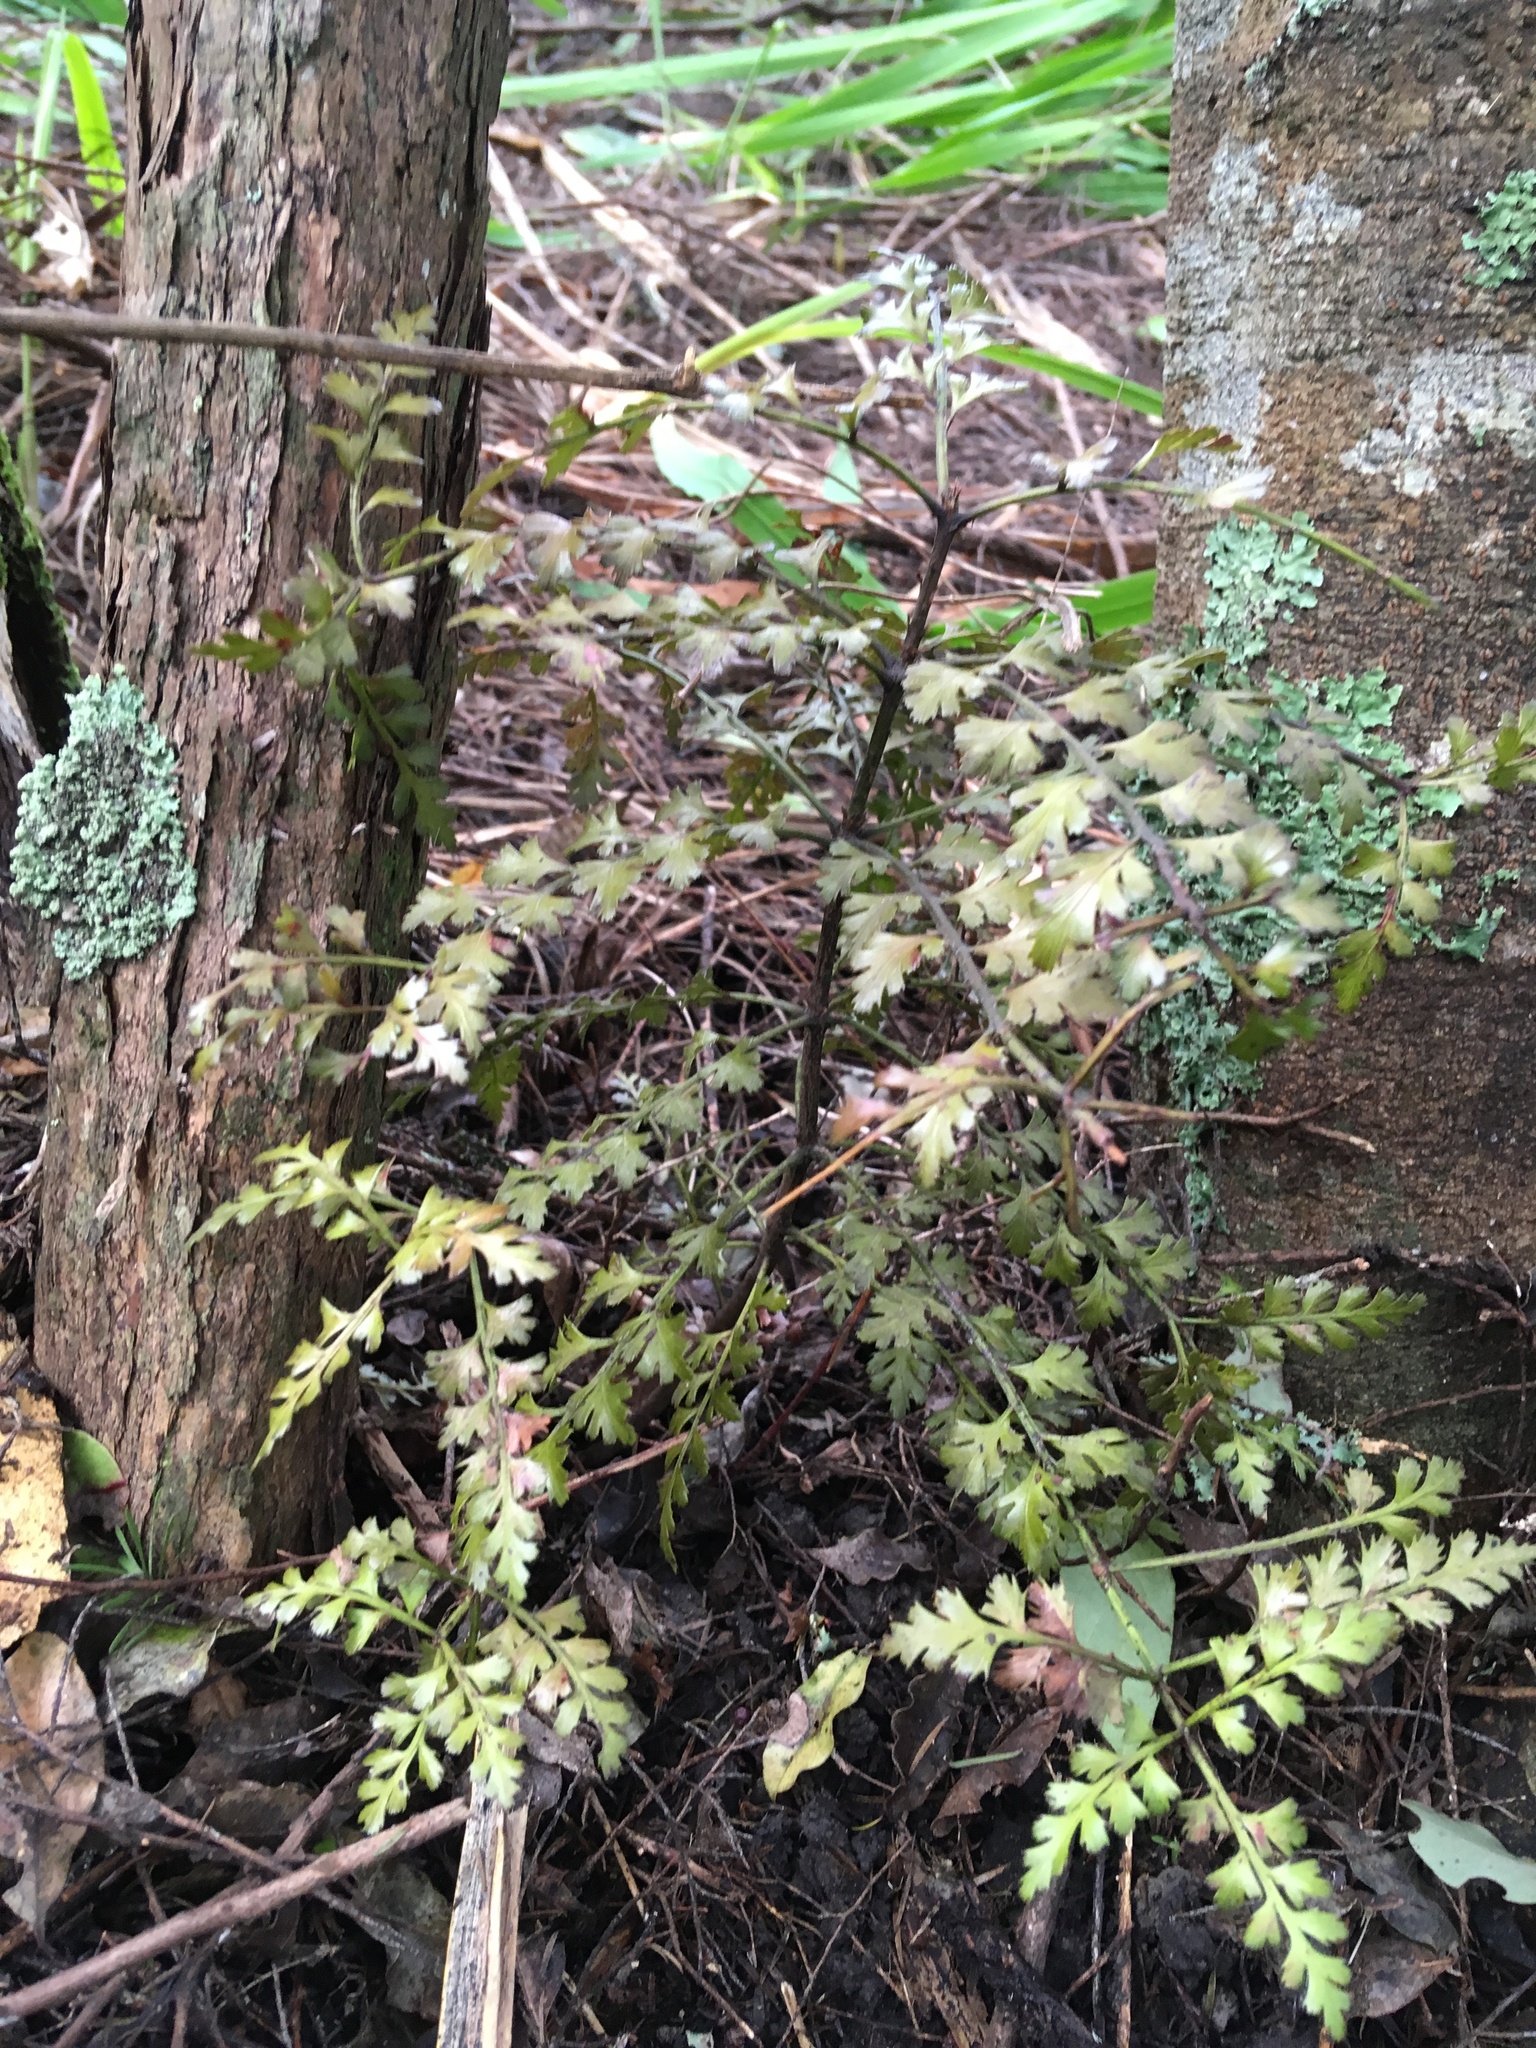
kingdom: Plantae
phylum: Tracheophyta
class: Pinopsida
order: Pinales
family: Phyllocladaceae
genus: Phyllocladus
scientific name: Phyllocladus trichomanoides
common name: Celery pine
